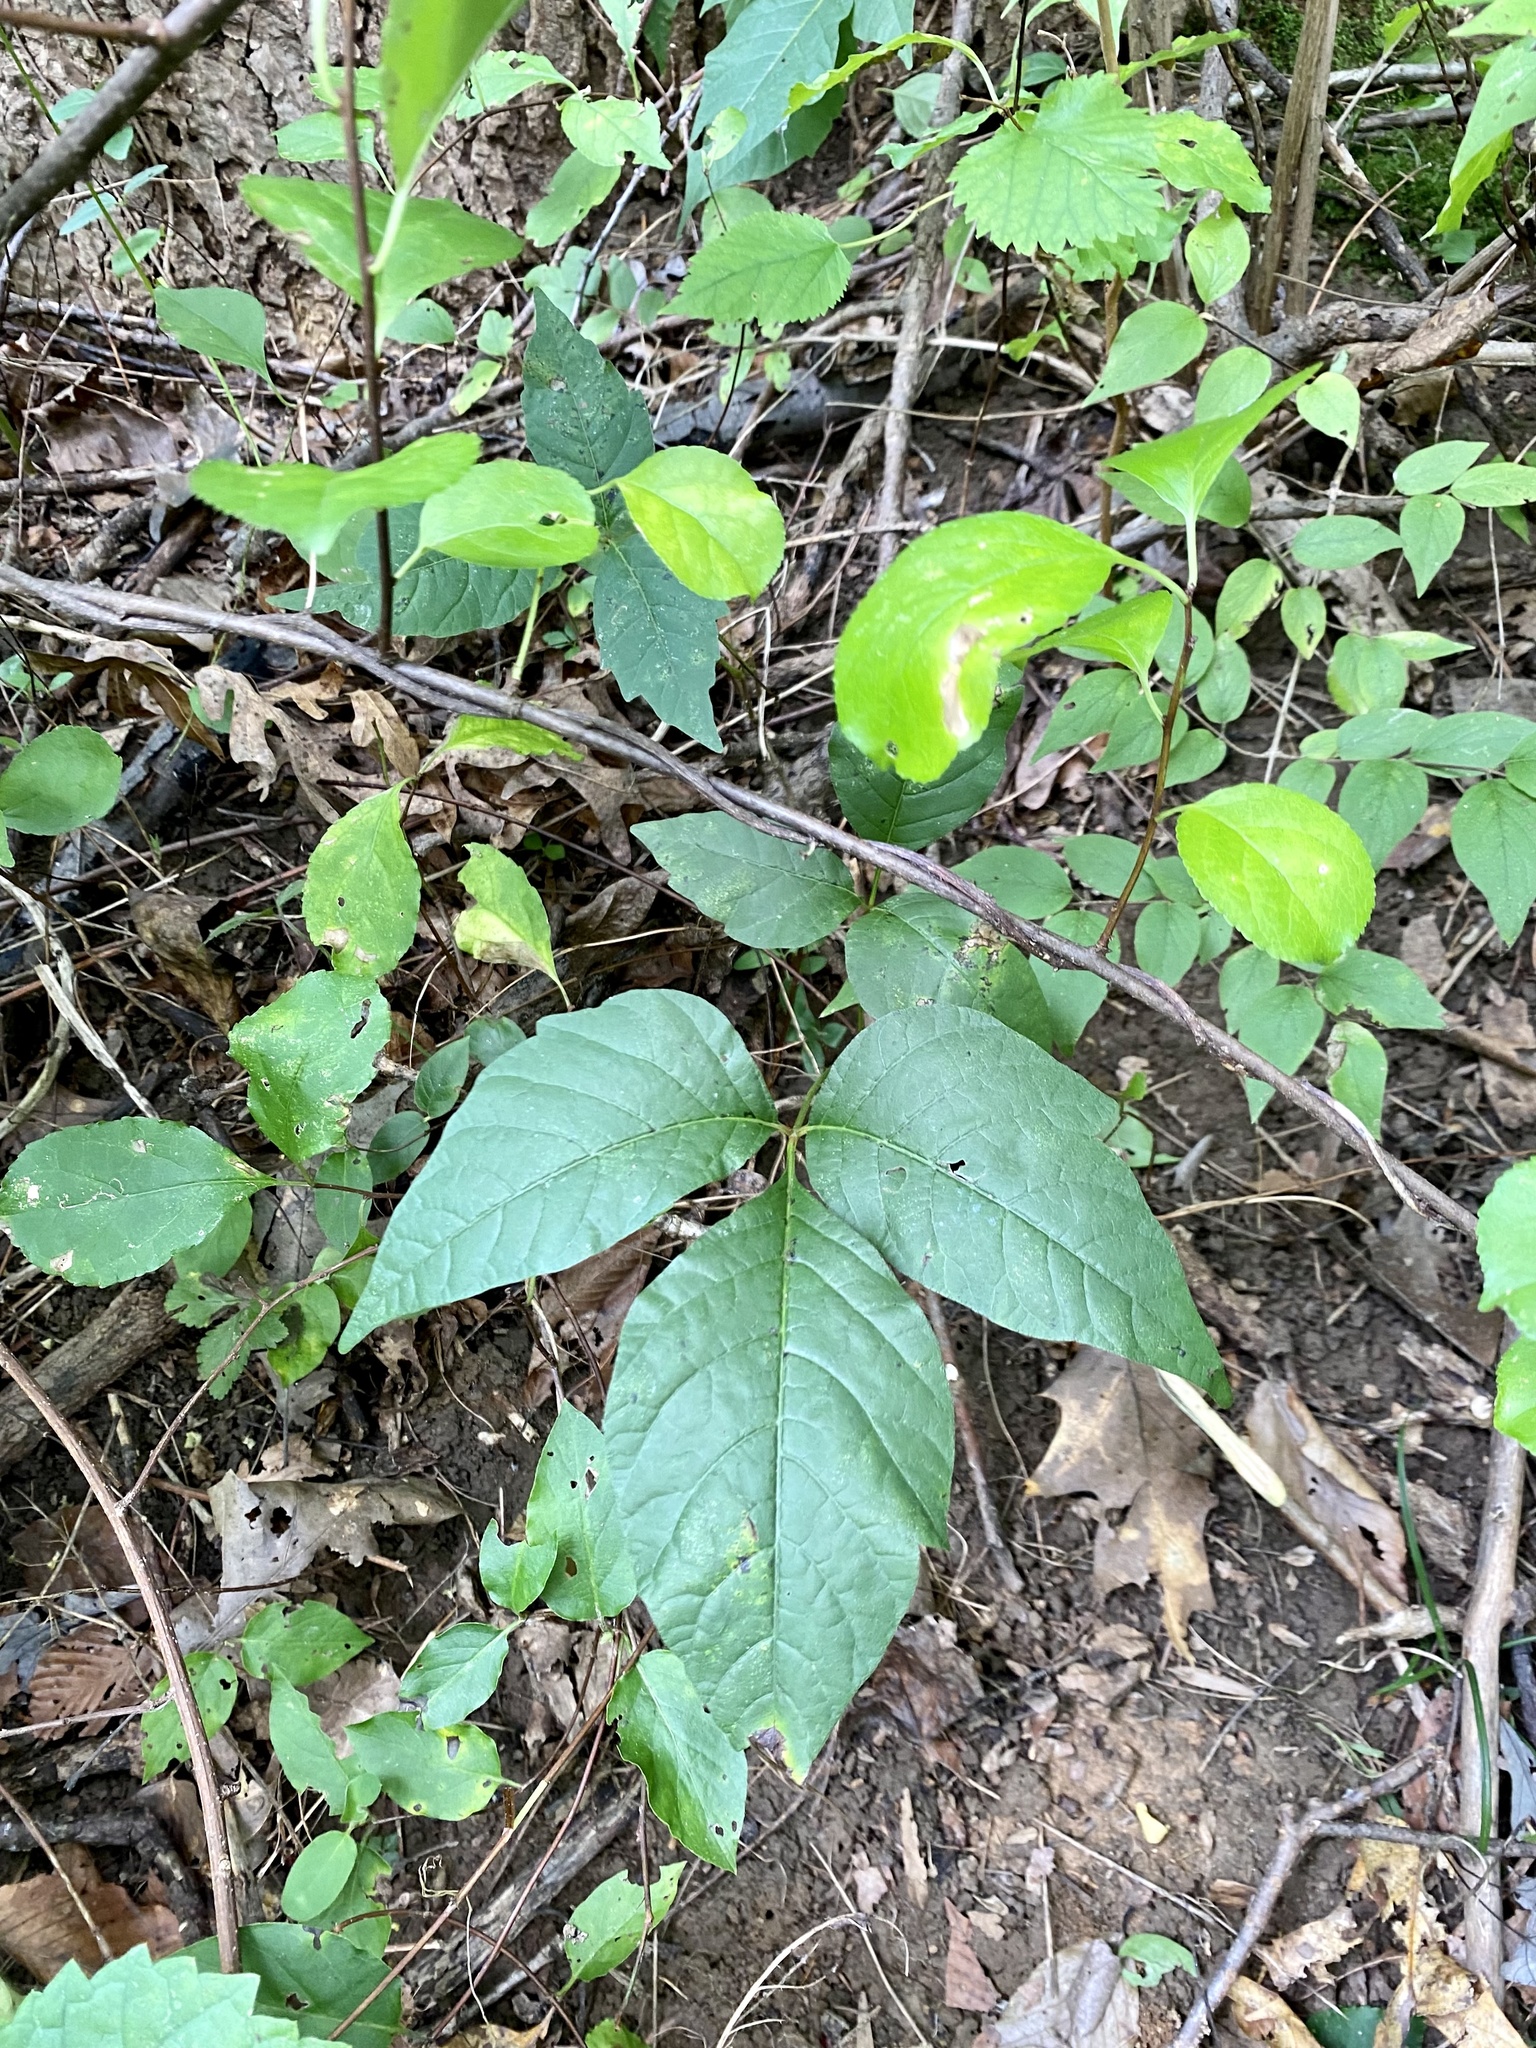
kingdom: Plantae
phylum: Tracheophyta
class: Magnoliopsida
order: Sapindales
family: Anacardiaceae
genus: Toxicodendron
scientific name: Toxicodendron radicans
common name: Poison ivy
